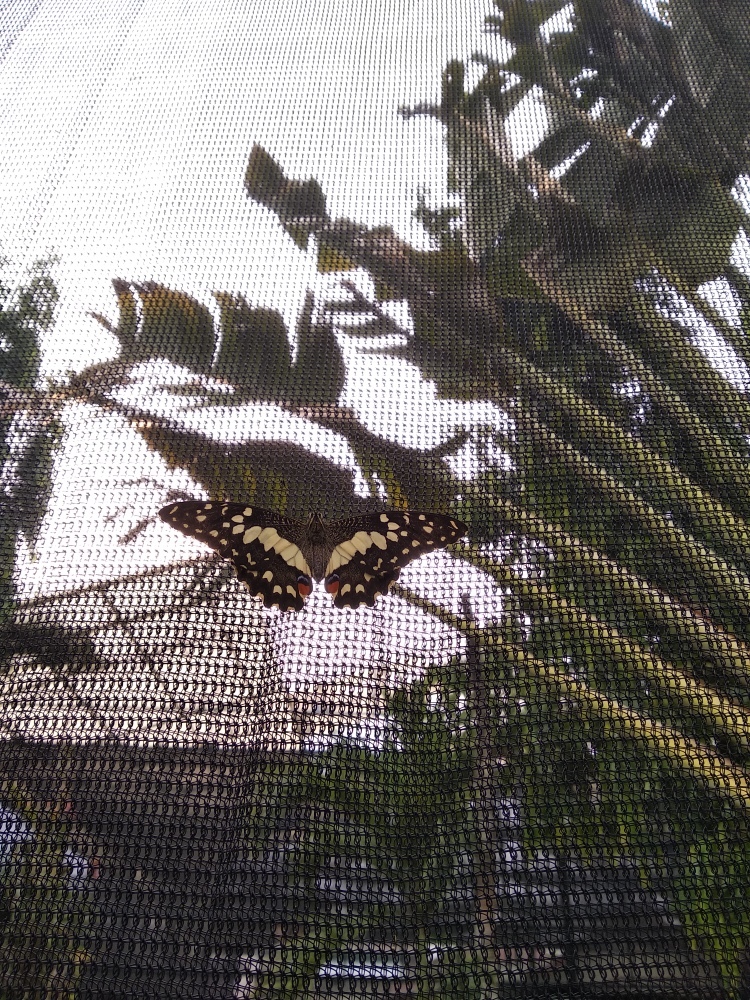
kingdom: Animalia
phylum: Arthropoda
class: Insecta
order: Lepidoptera
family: Papilionidae
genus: Papilio
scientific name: Papilio demoleus
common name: Lime butterfly
